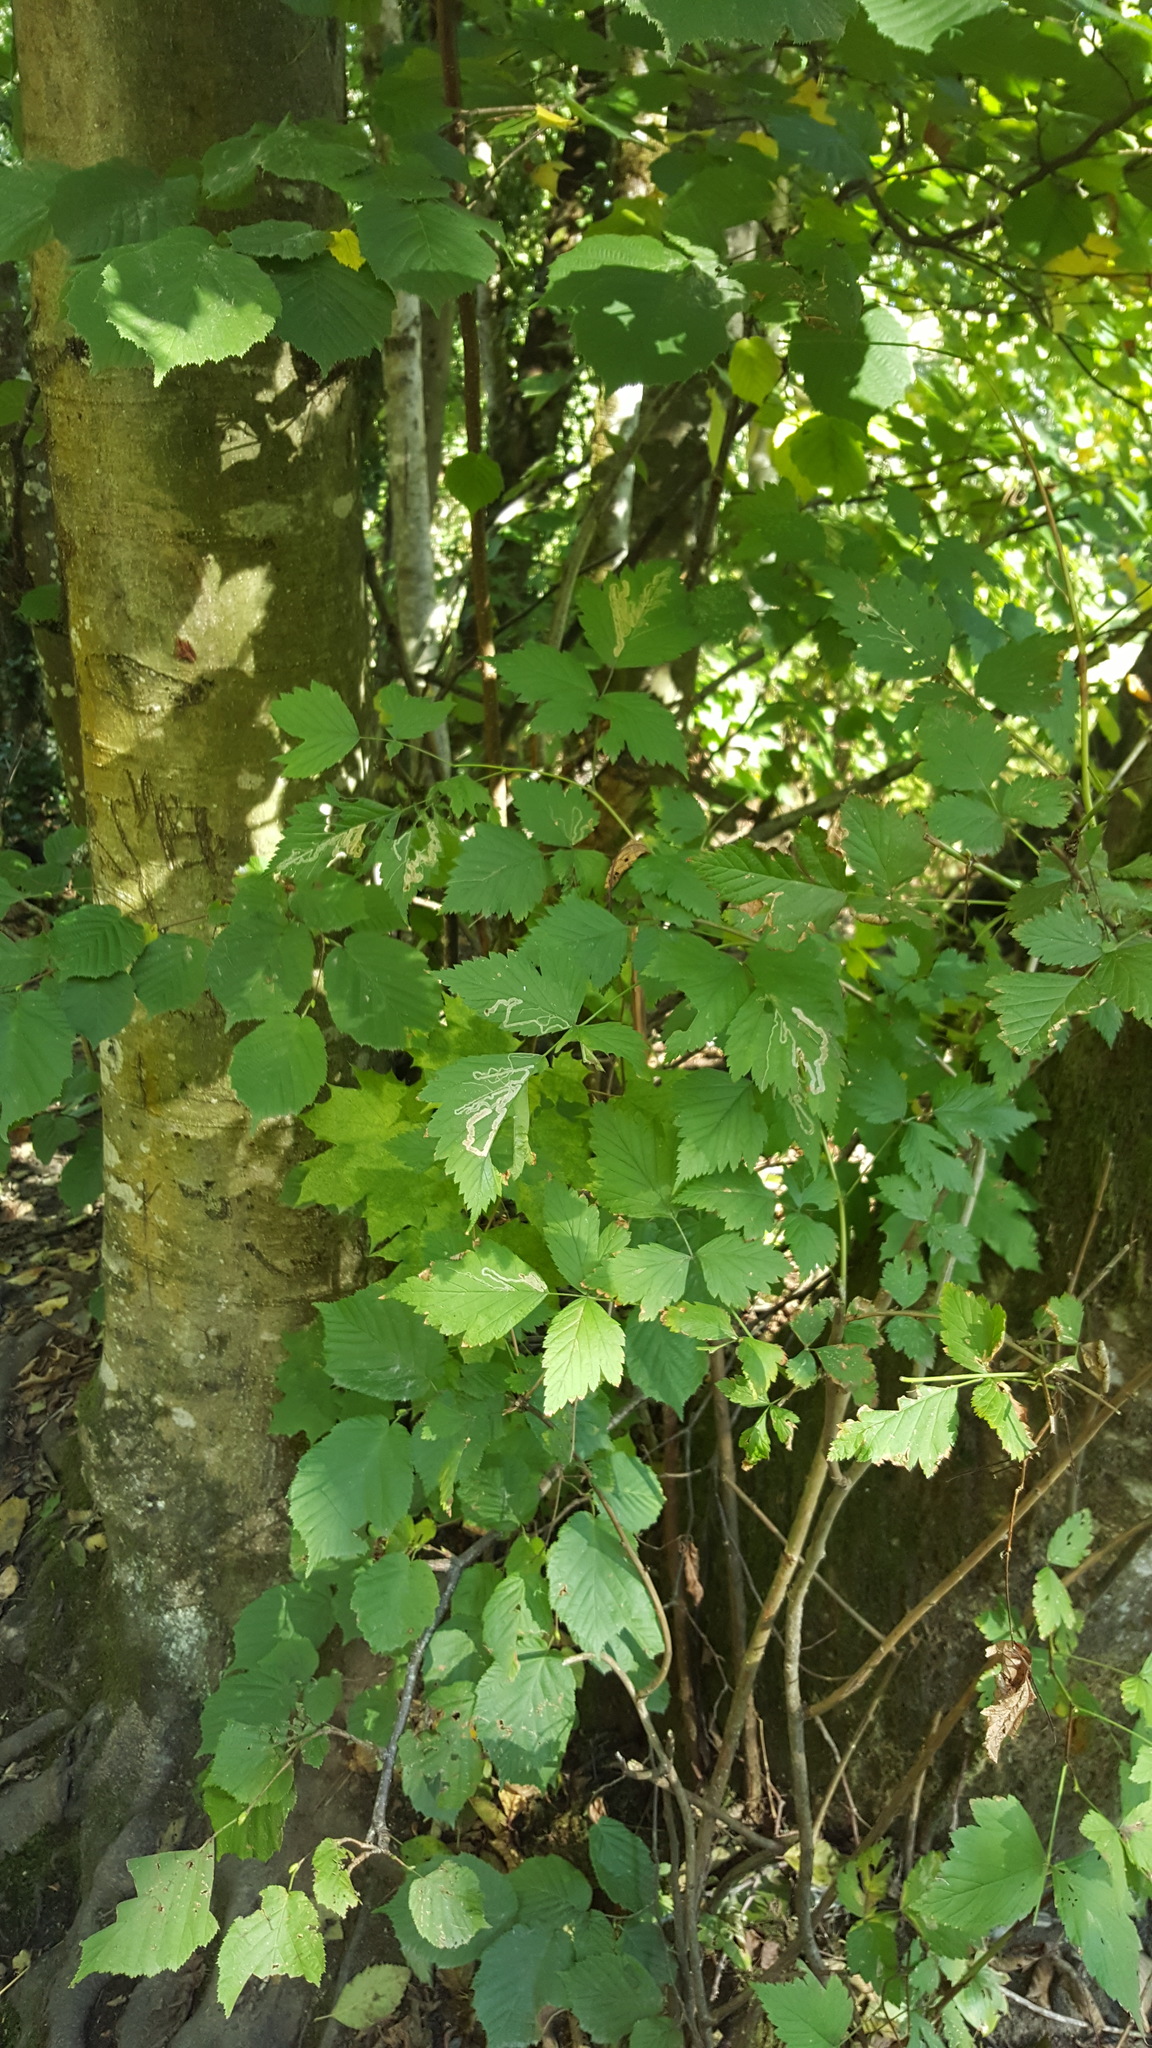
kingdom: Animalia
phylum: Arthropoda
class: Insecta
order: Diptera
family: Agromyzidae
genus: Agromyza
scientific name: Agromyza vockerothi
